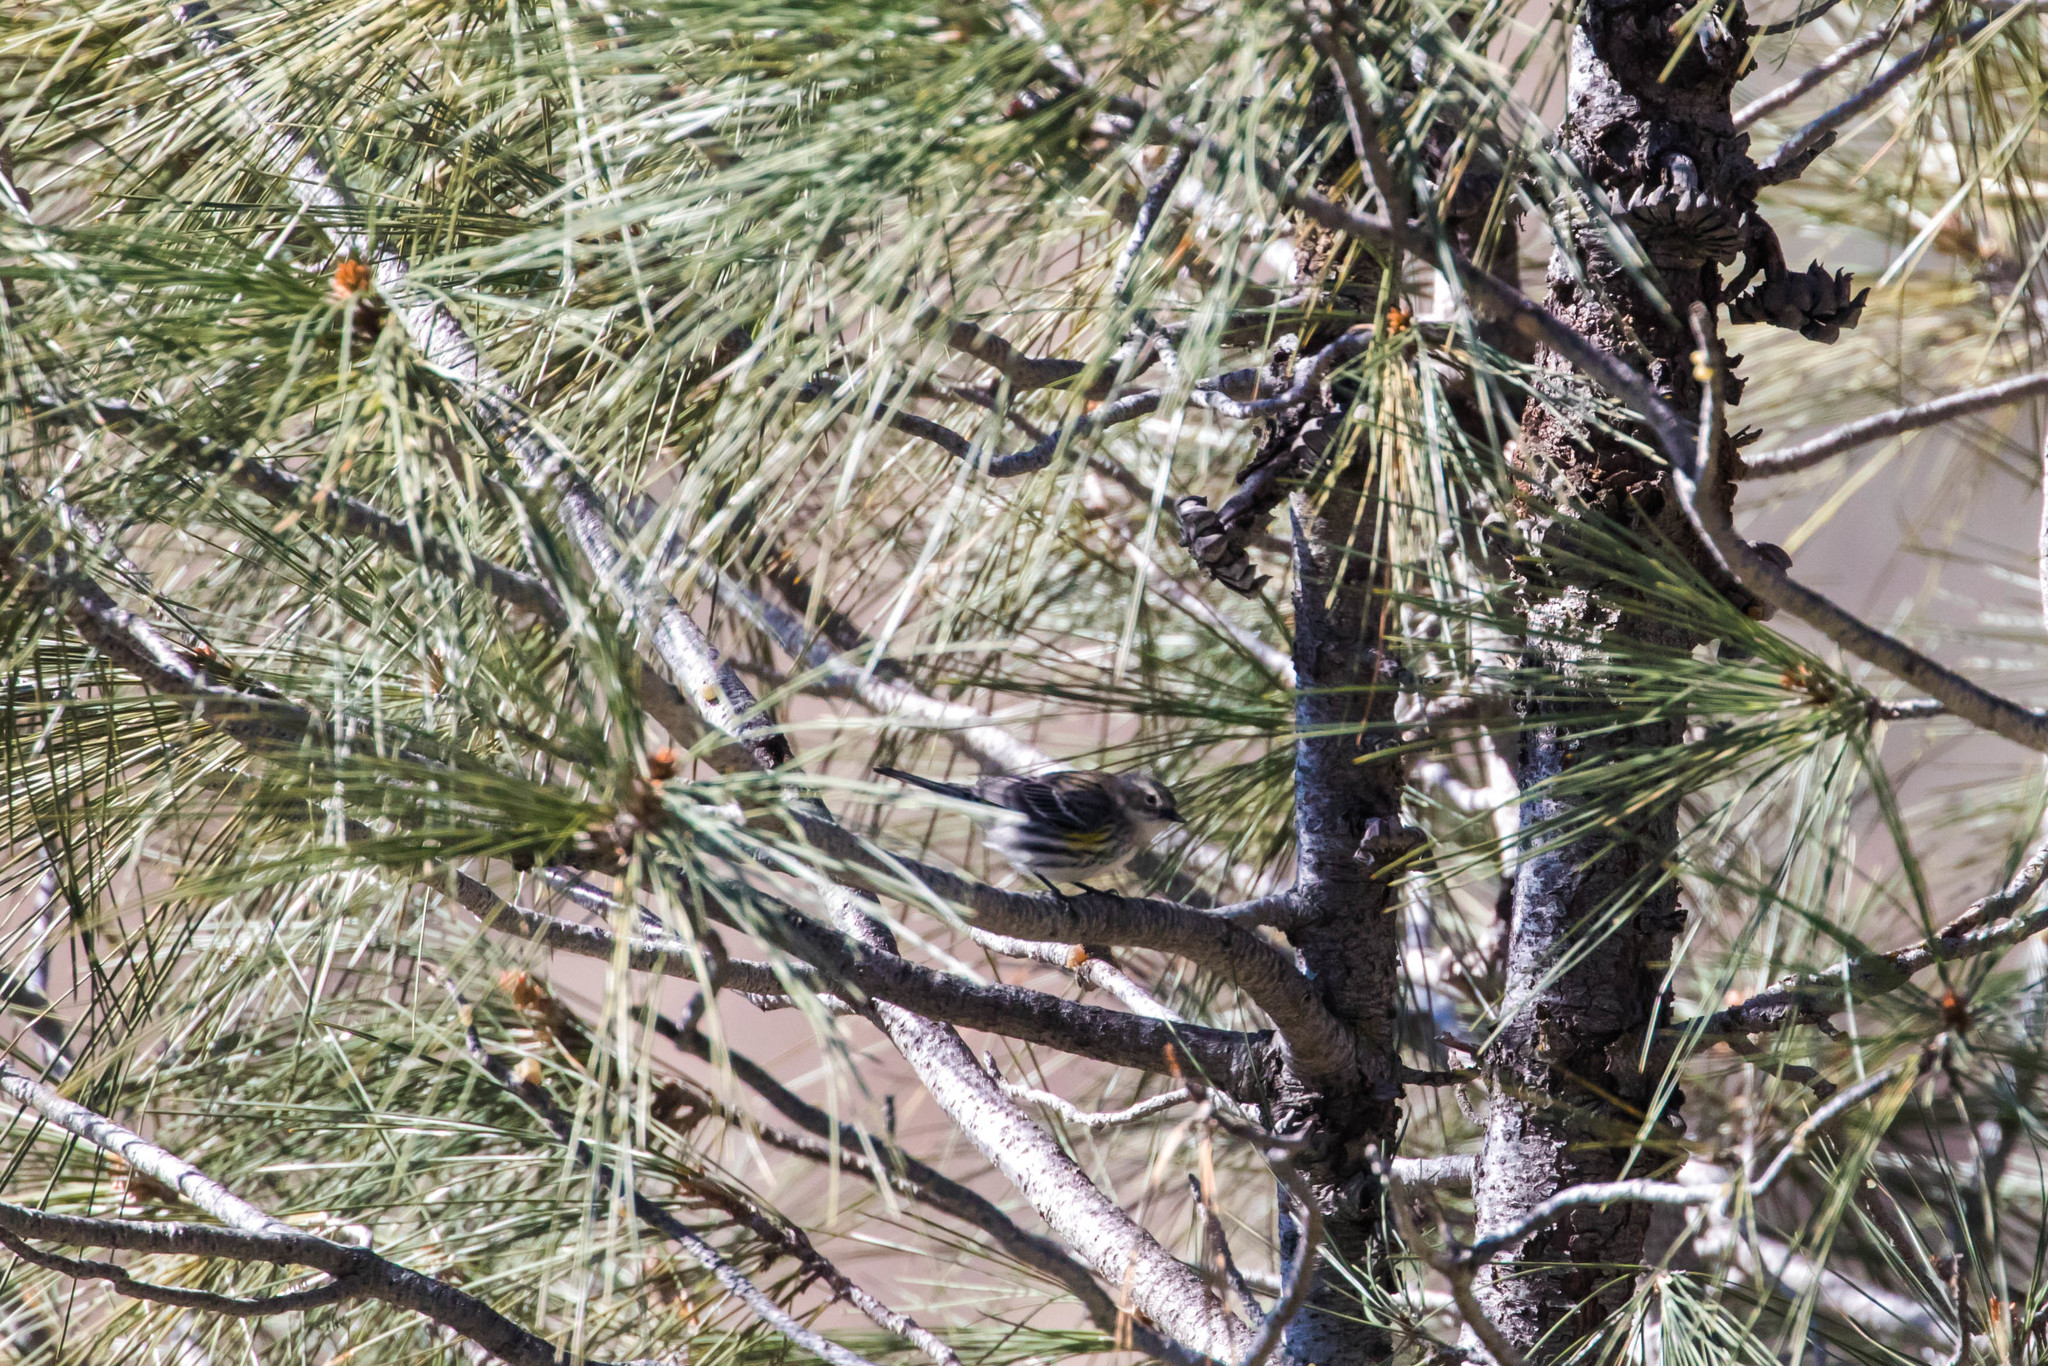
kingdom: Animalia
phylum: Chordata
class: Aves
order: Passeriformes
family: Parulidae
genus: Setophaga
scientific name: Setophaga coronata
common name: Myrtle warbler
